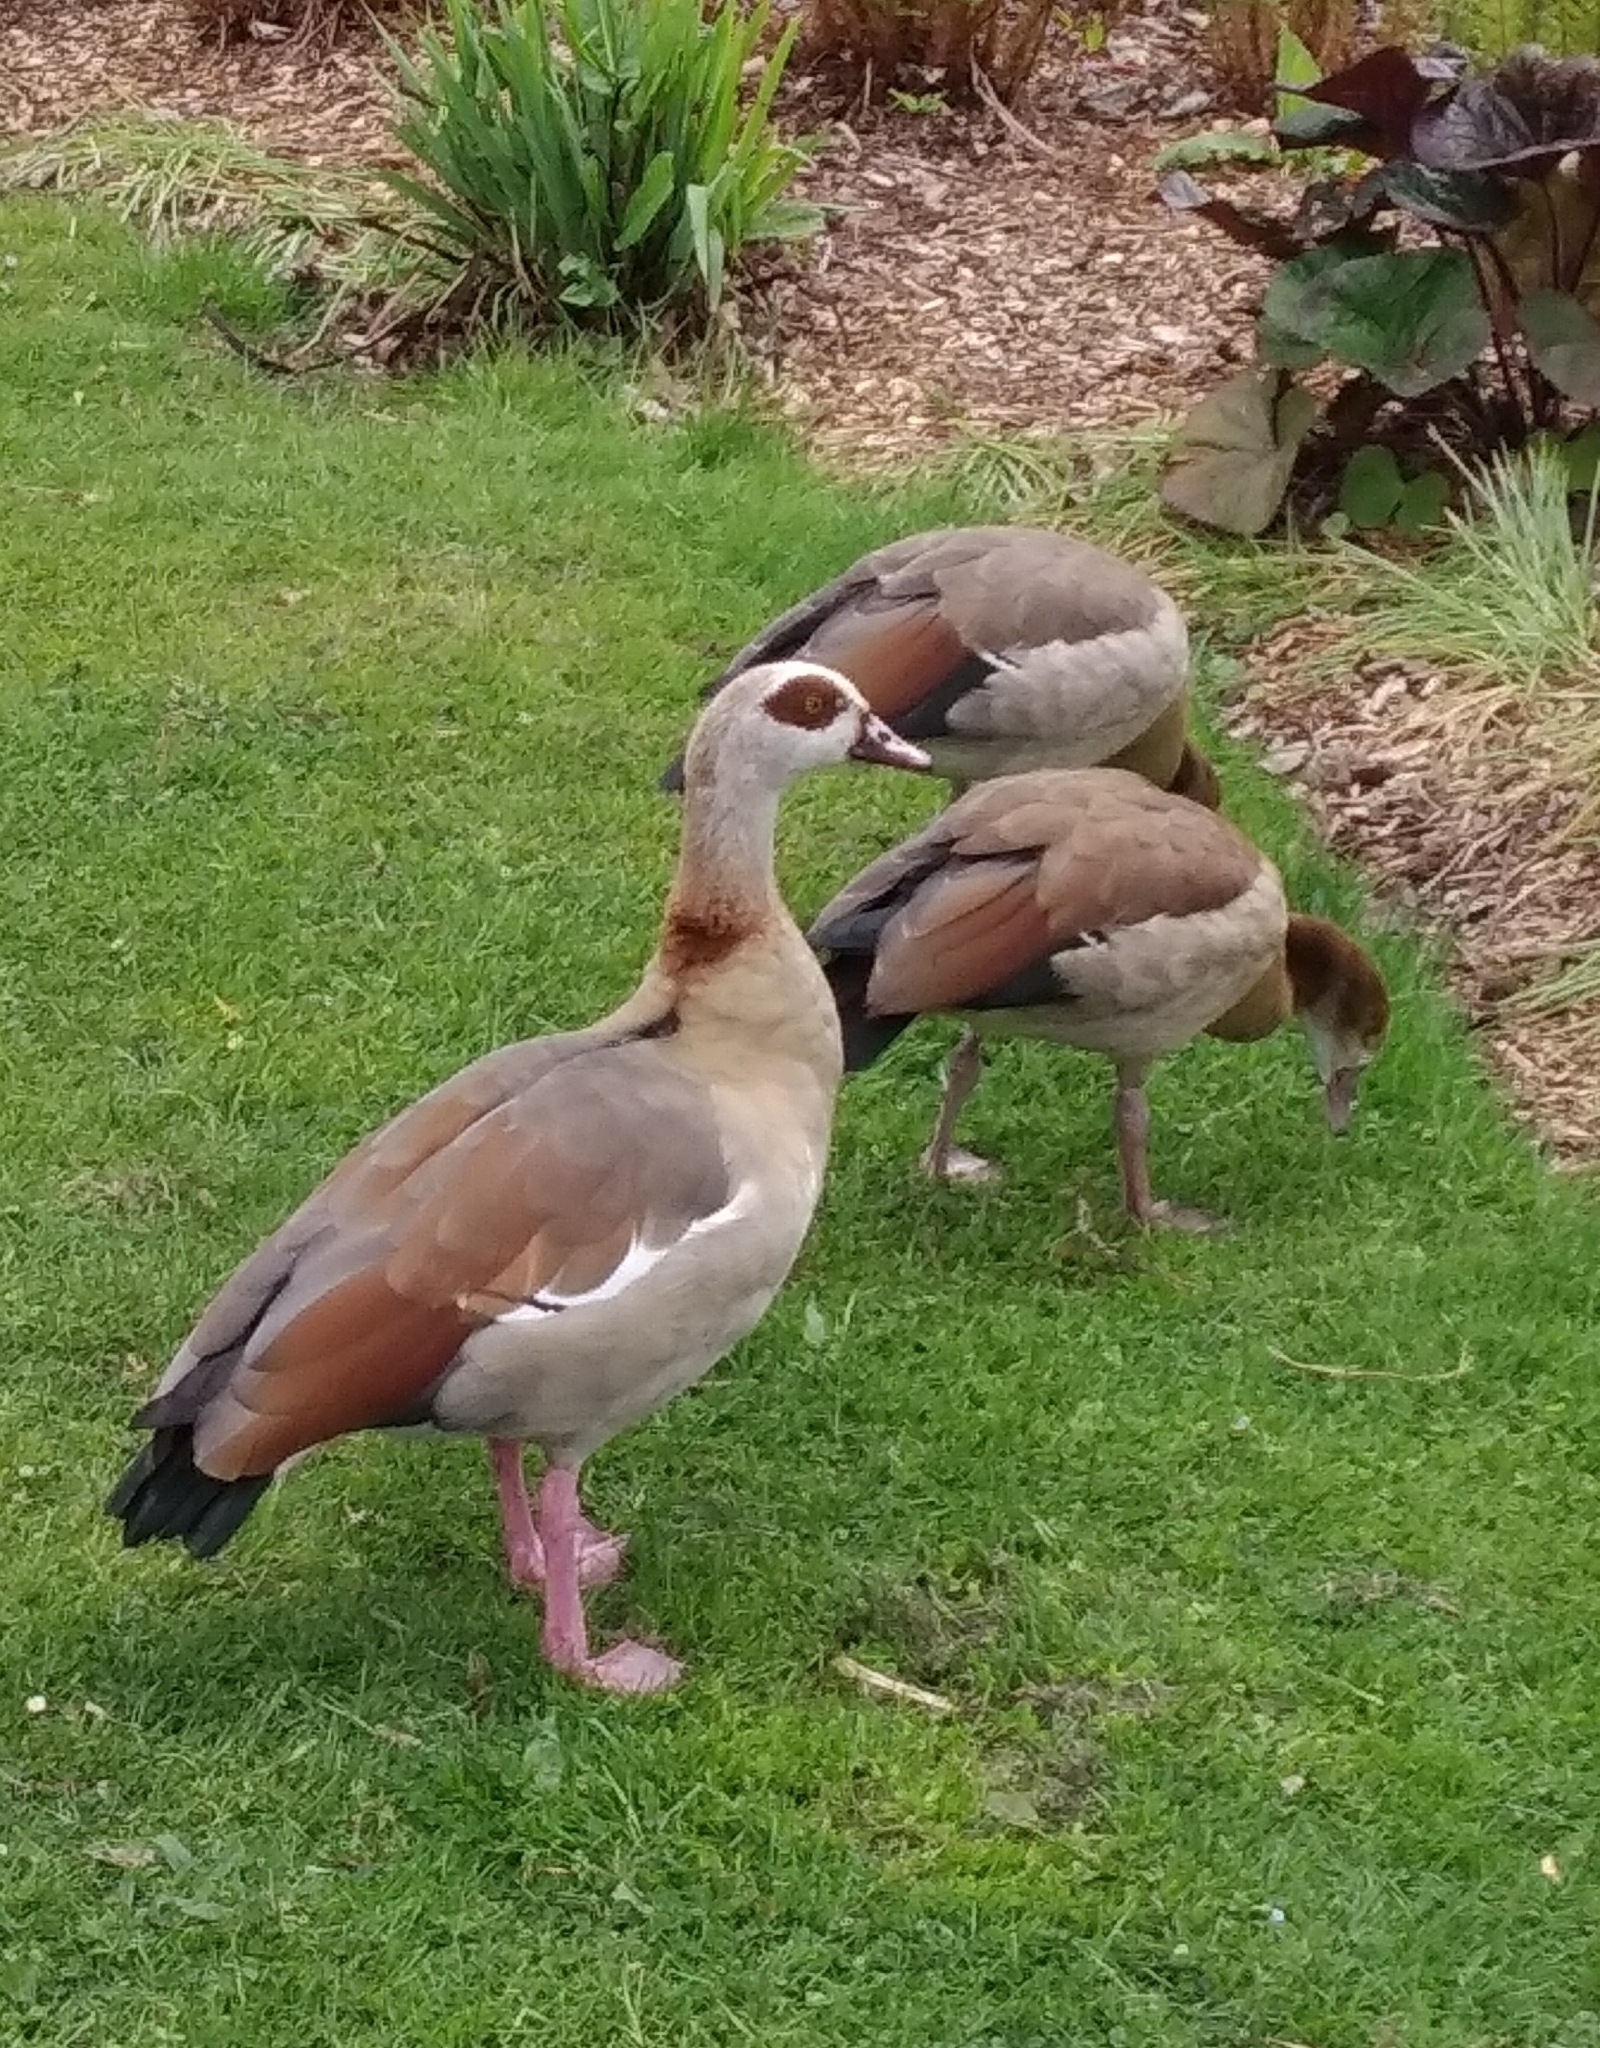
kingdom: Animalia
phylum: Chordata
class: Aves
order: Anseriformes
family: Anatidae
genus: Alopochen
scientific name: Alopochen aegyptiaca
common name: Egyptian goose
